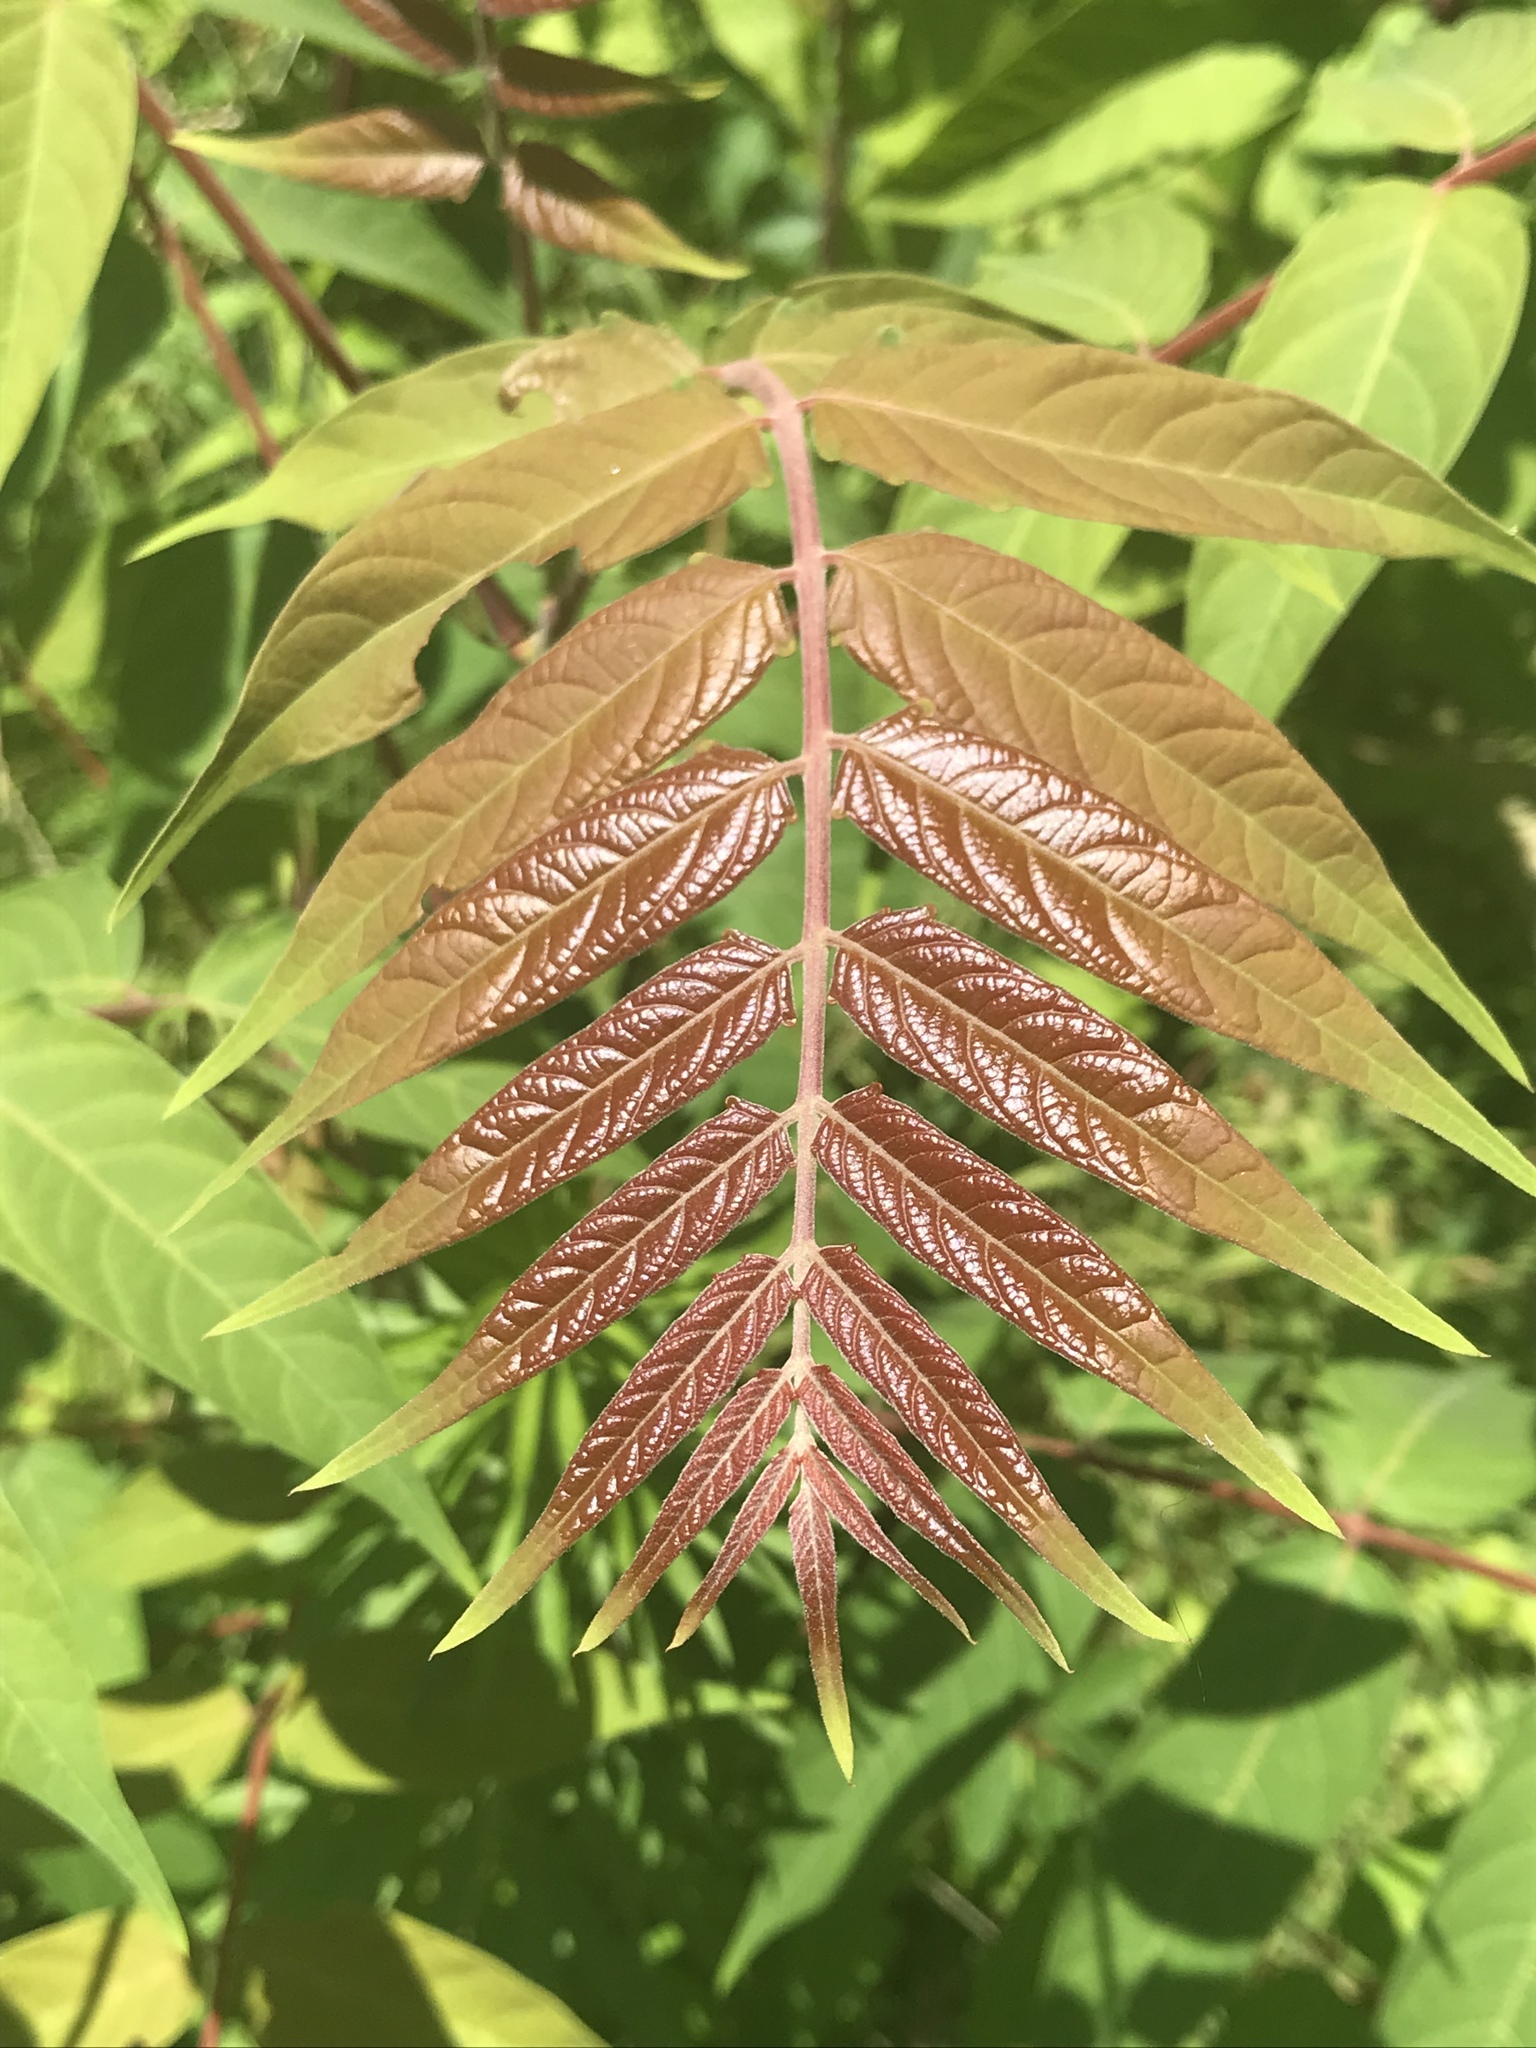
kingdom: Plantae
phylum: Tracheophyta
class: Magnoliopsida
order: Sapindales
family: Simaroubaceae
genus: Ailanthus
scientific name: Ailanthus altissima
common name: Tree-of-heaven
